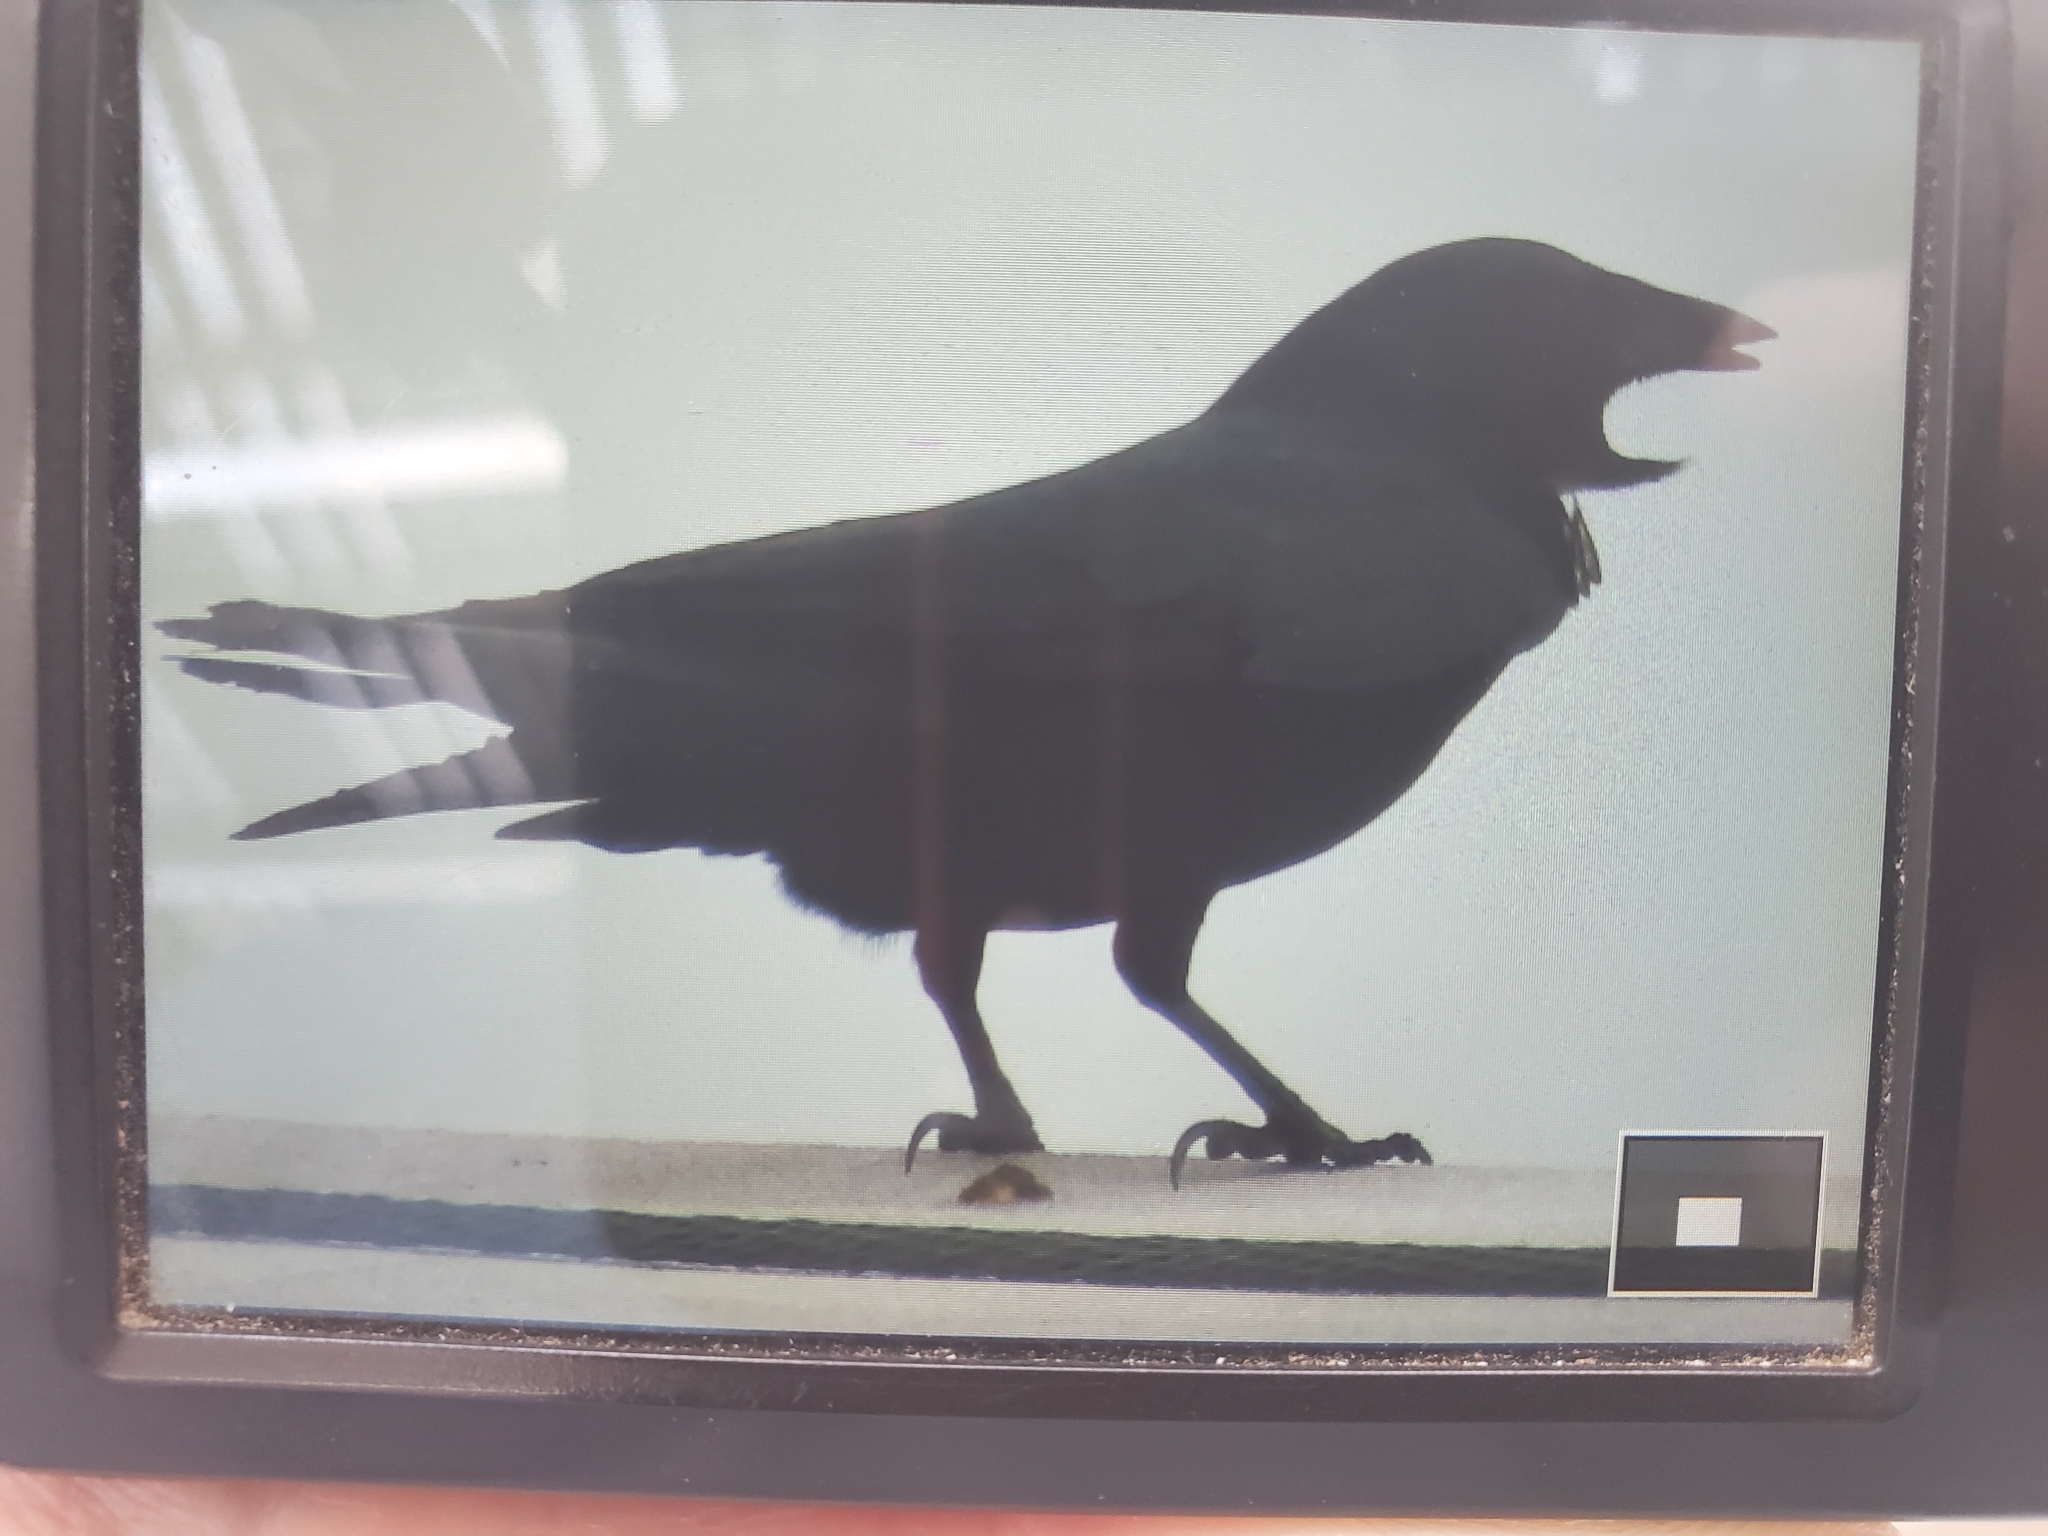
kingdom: Animalia
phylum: Chordata
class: Aves
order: Passeriformes
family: Corvidae
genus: Corvus
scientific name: Corvus ossifragus
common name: Fish crow
